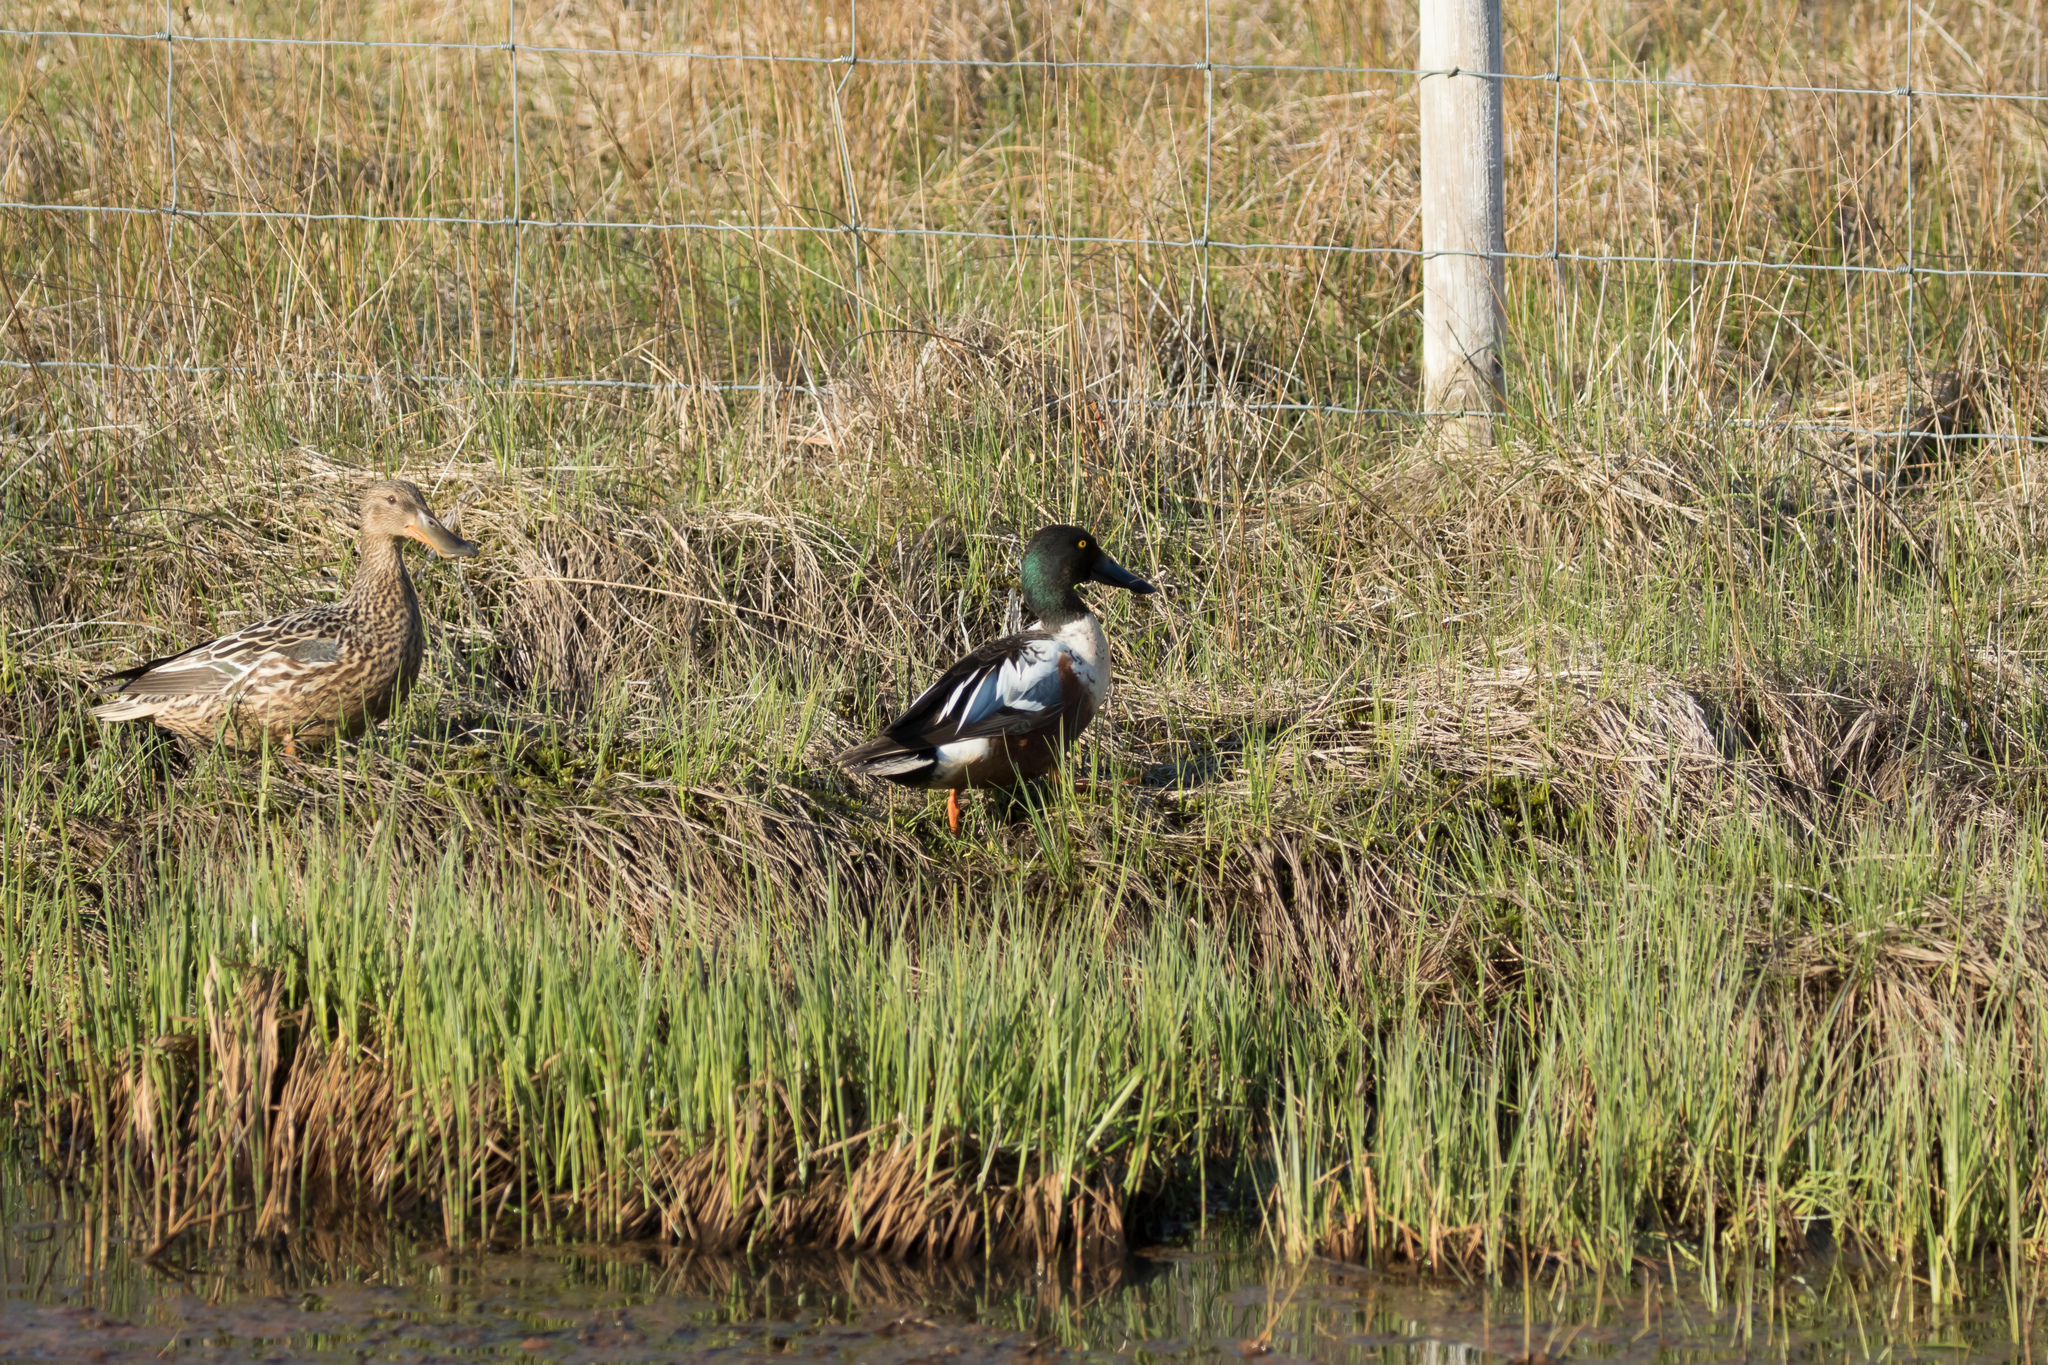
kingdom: Animalia
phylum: Chordata
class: Aves
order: Anseriformes
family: Anatidae
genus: Spatula
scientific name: Spatula clypeata
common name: Northern shoveler
